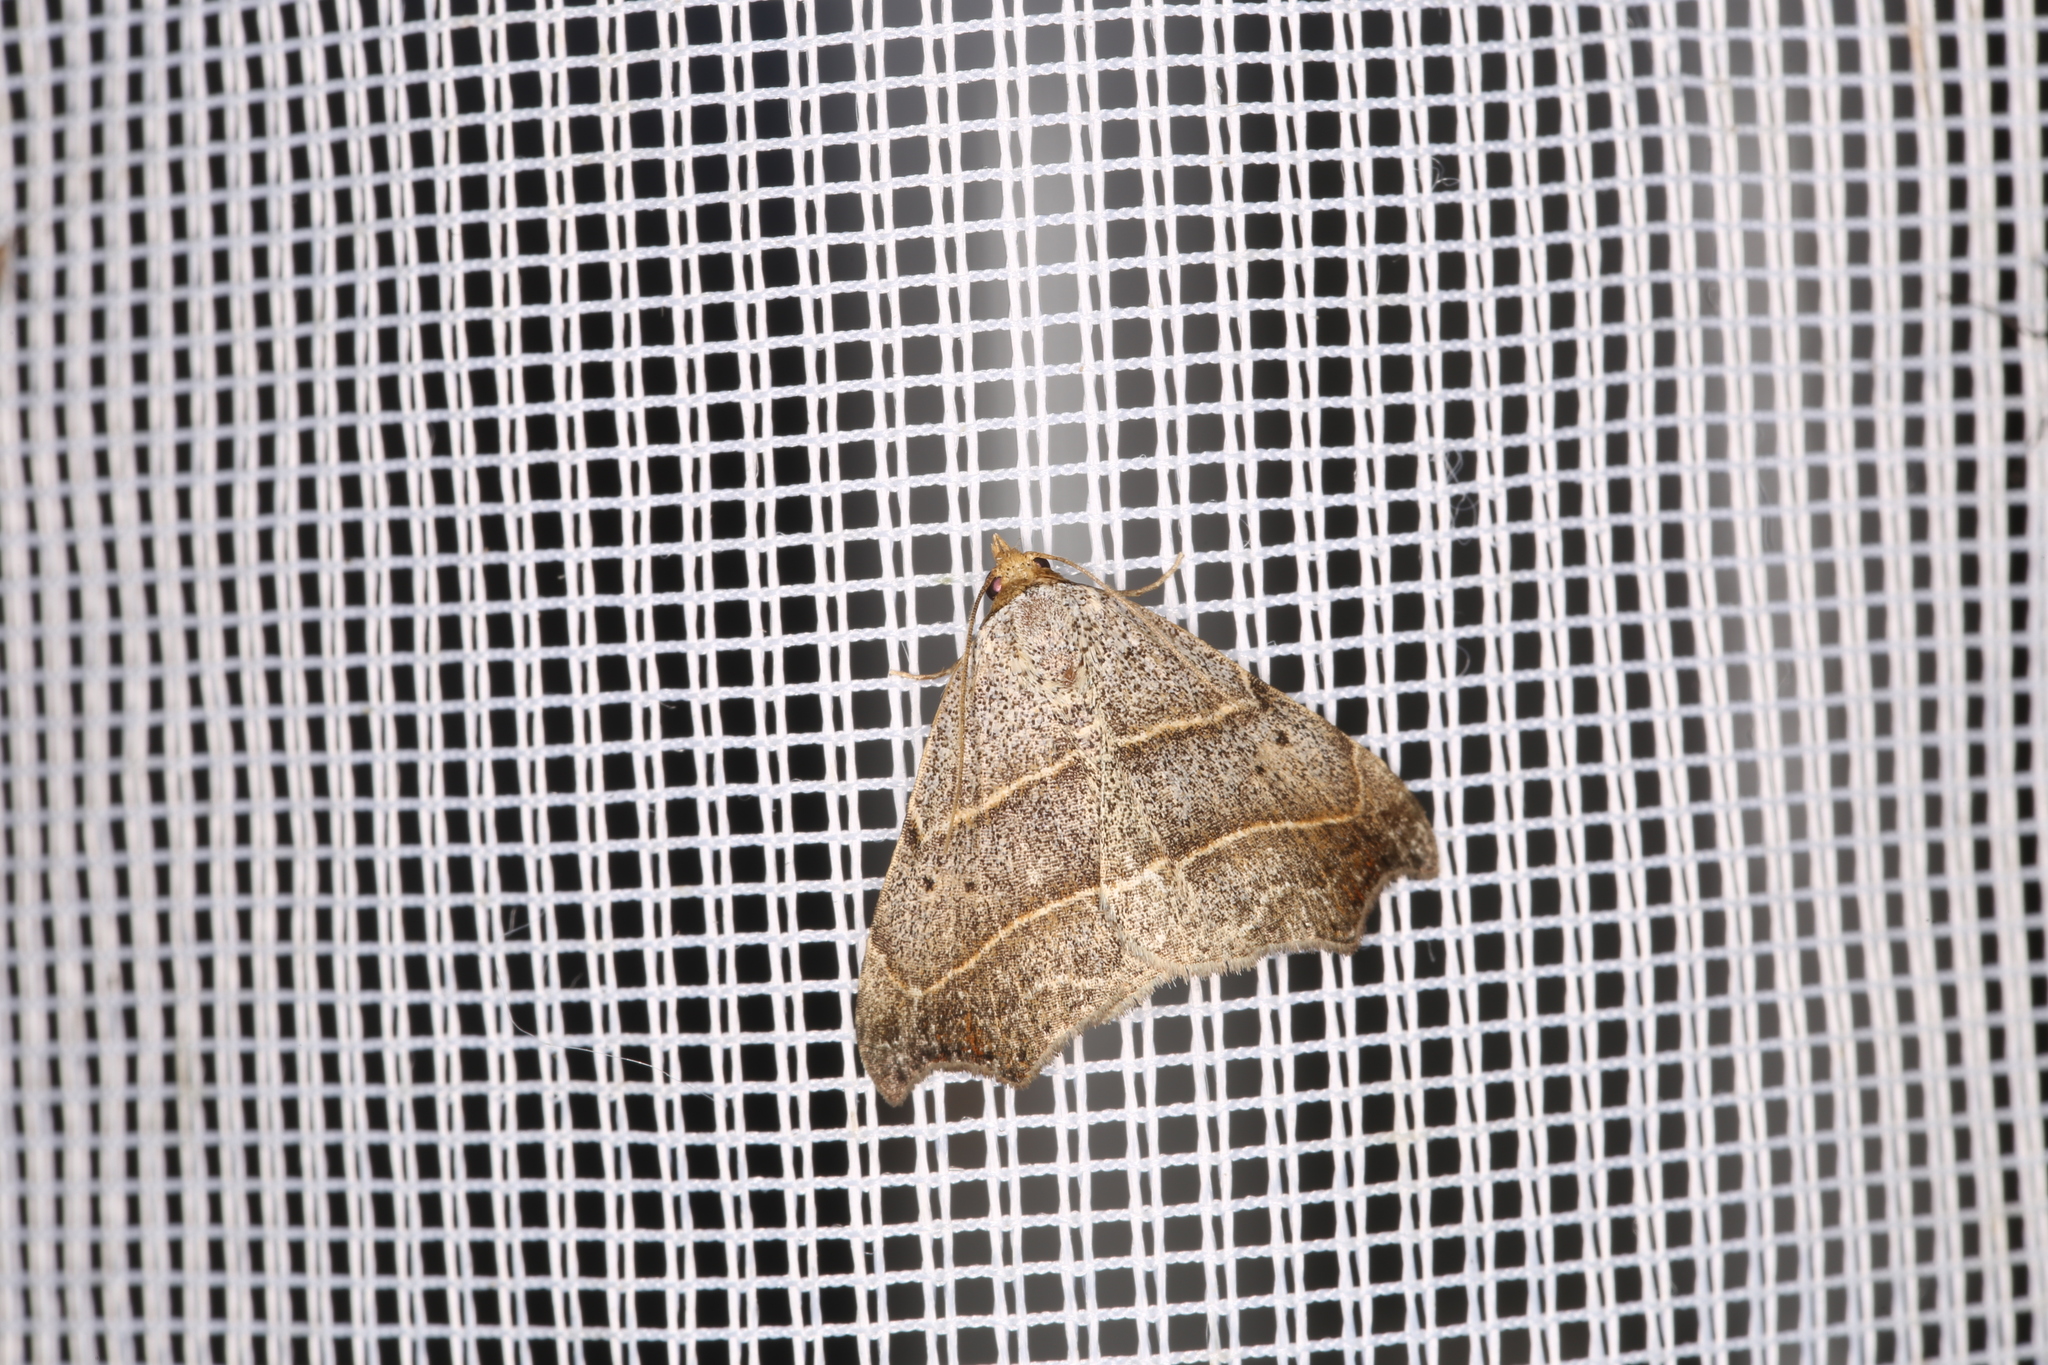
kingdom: Animalia
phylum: Arthropoda
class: Insecta
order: Lepidoptera
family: Erebidae
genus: Laspeyria
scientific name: Laspeyria flexula
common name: Beautiful hook-tip
